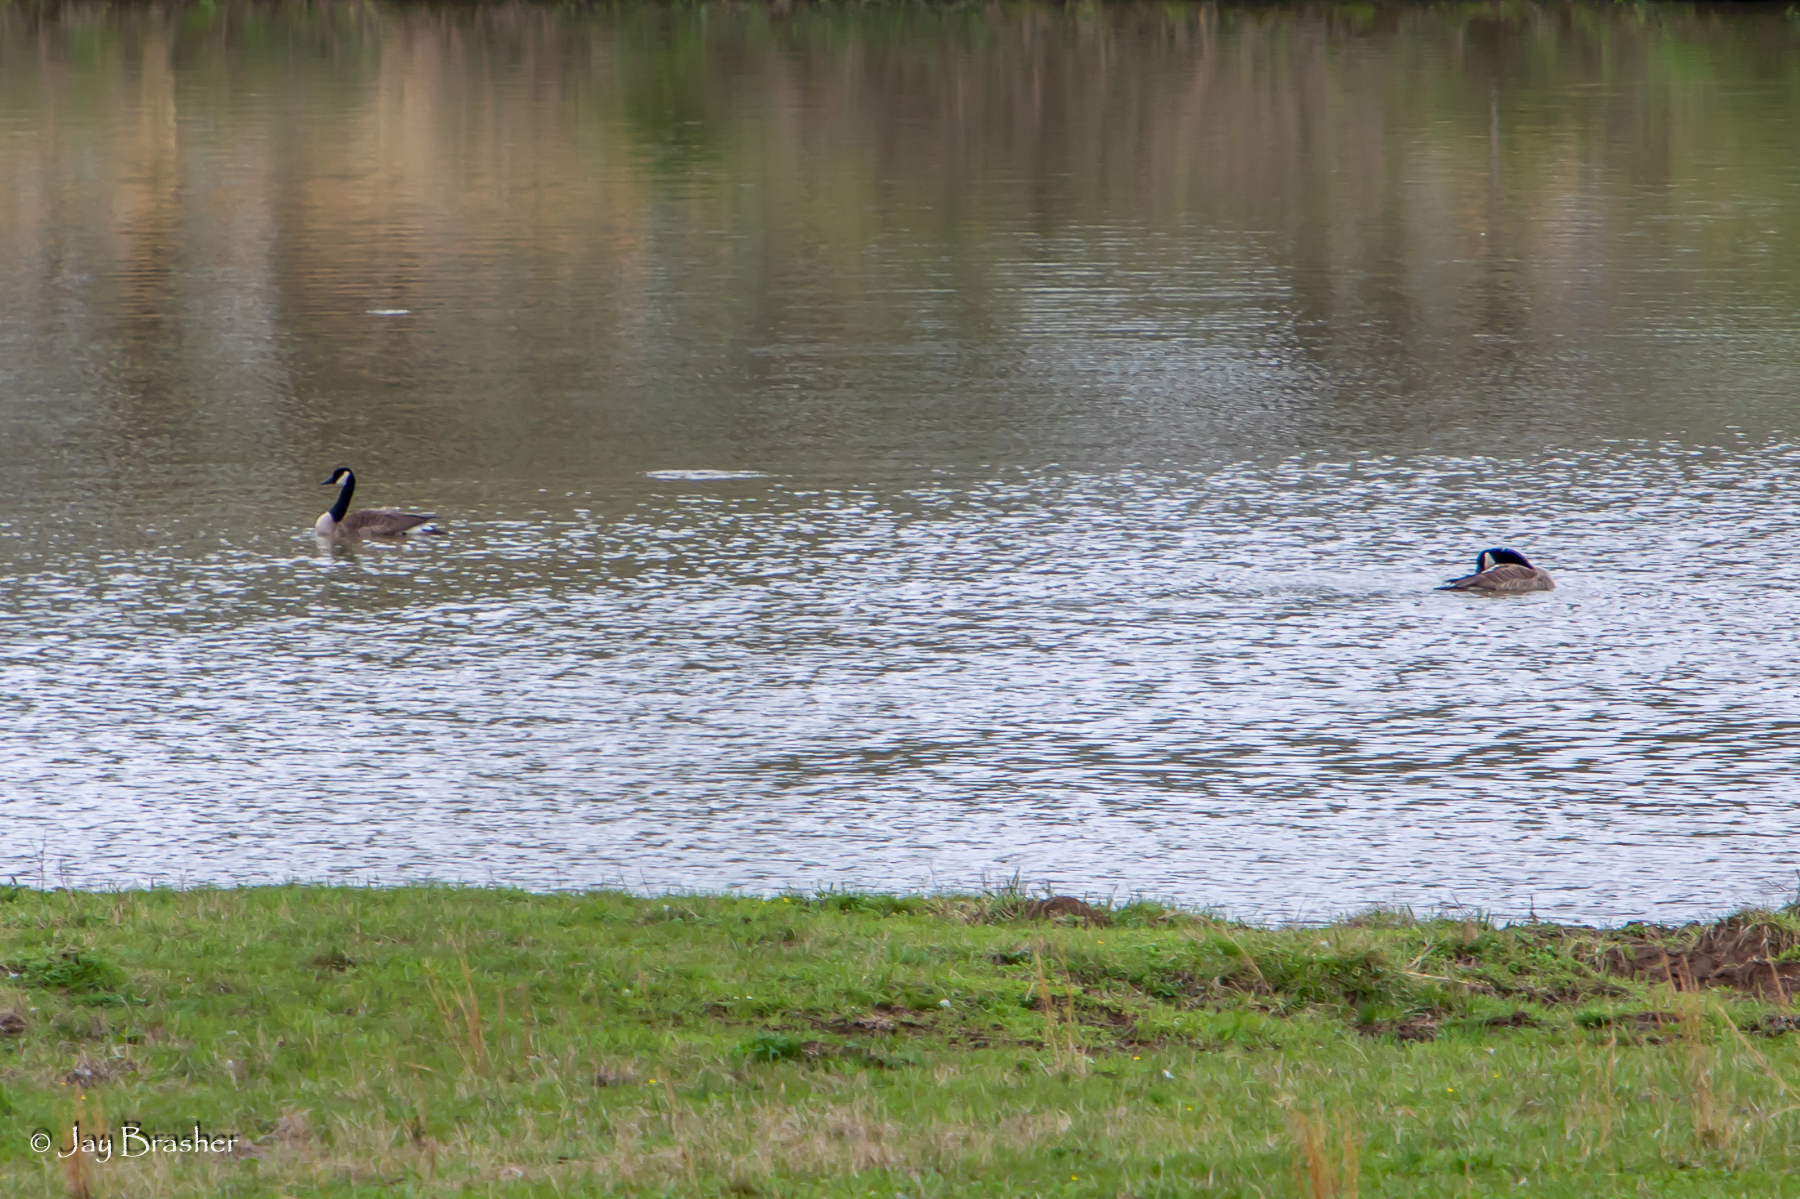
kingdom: Animalia
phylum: Chordata
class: Aves
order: Anseriformes
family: Anatidae
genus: Branta
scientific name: Branta canadensis
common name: Canada goose
